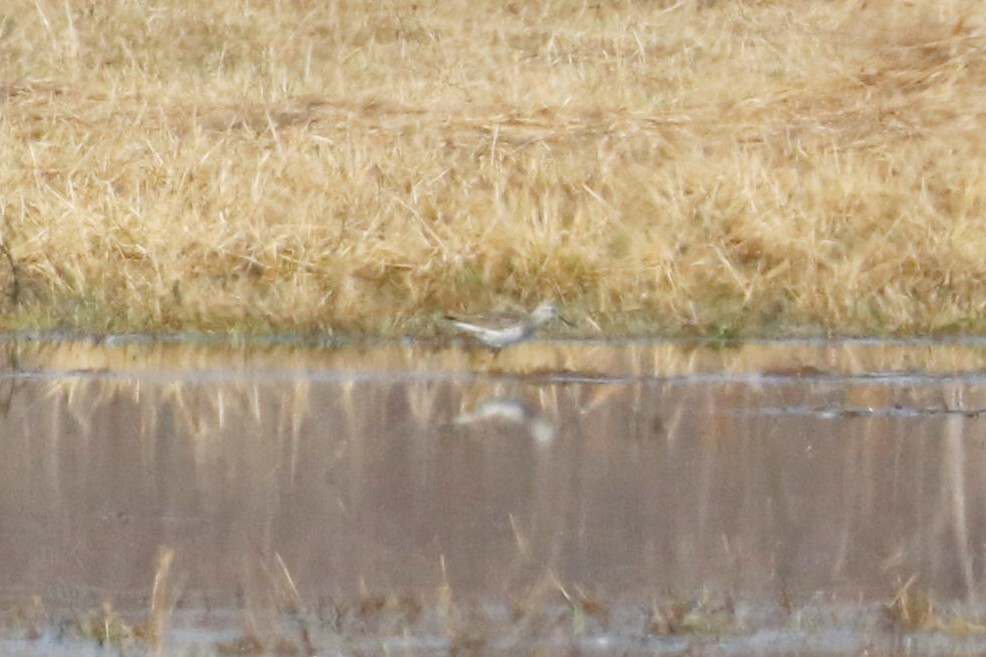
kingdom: Animalia
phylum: Chordata
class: Aves
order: Charadriiformes
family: Scolopacidae
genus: Tringa
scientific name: Tringa stagnatilis
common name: Marsh sandpiper
